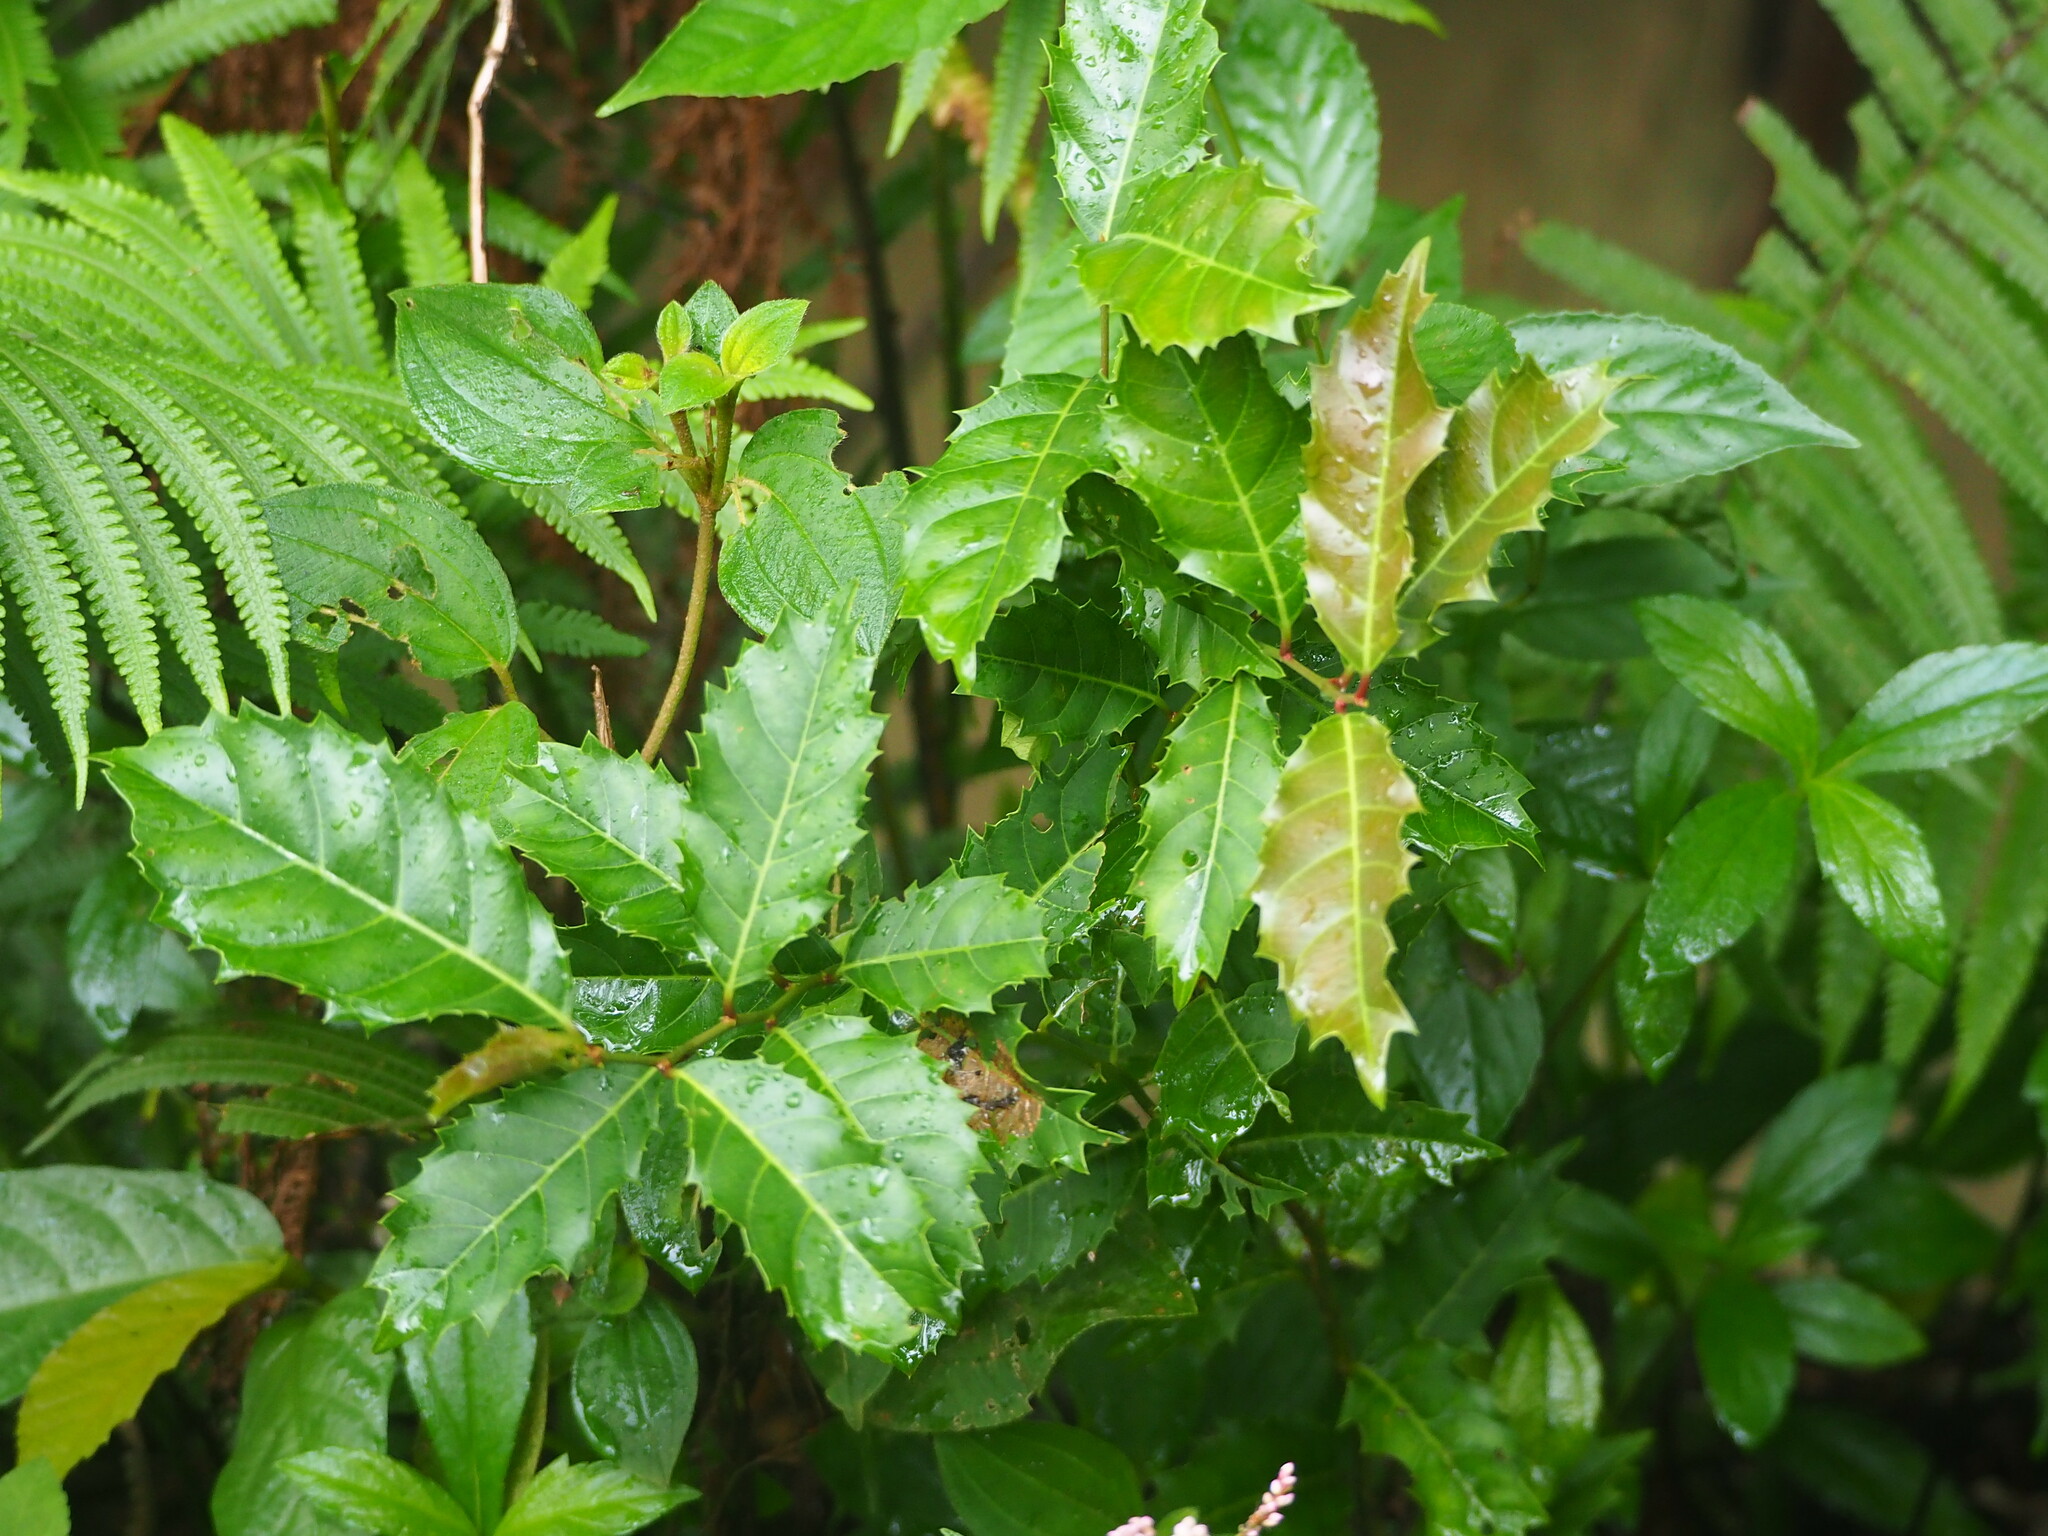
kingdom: Plantae
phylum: Tracheophyta
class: Magnoliopsida
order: Saxifragales
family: Iteaceae
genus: Itea
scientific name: Itea oldhamii
